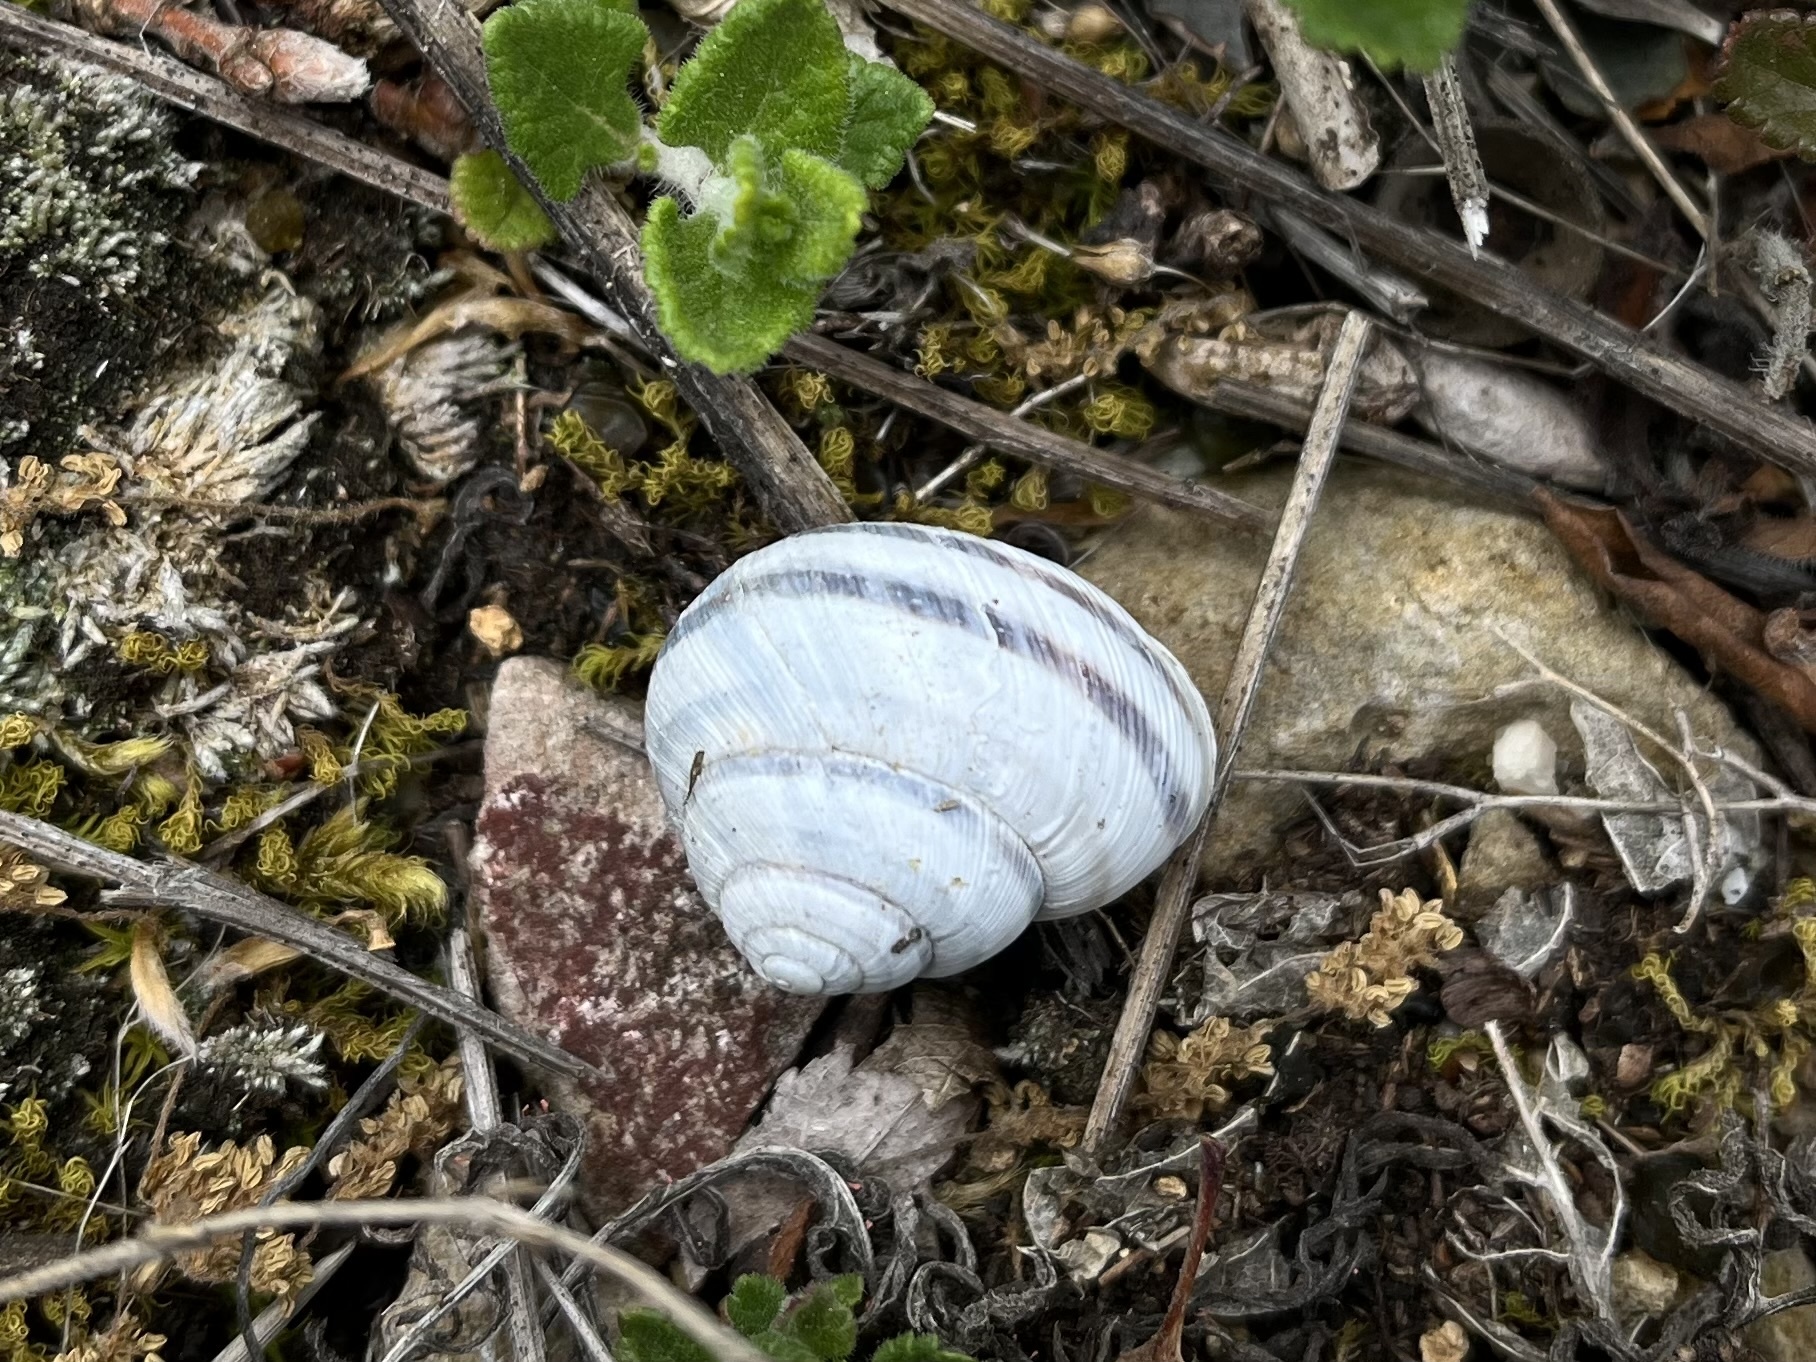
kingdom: Animalia
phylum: Mollusca
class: Gastropoda
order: Stylommatophora
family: Helicidae
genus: Caucasotachea
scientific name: Caucasotachea vindobonensis
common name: European helicid land snail
